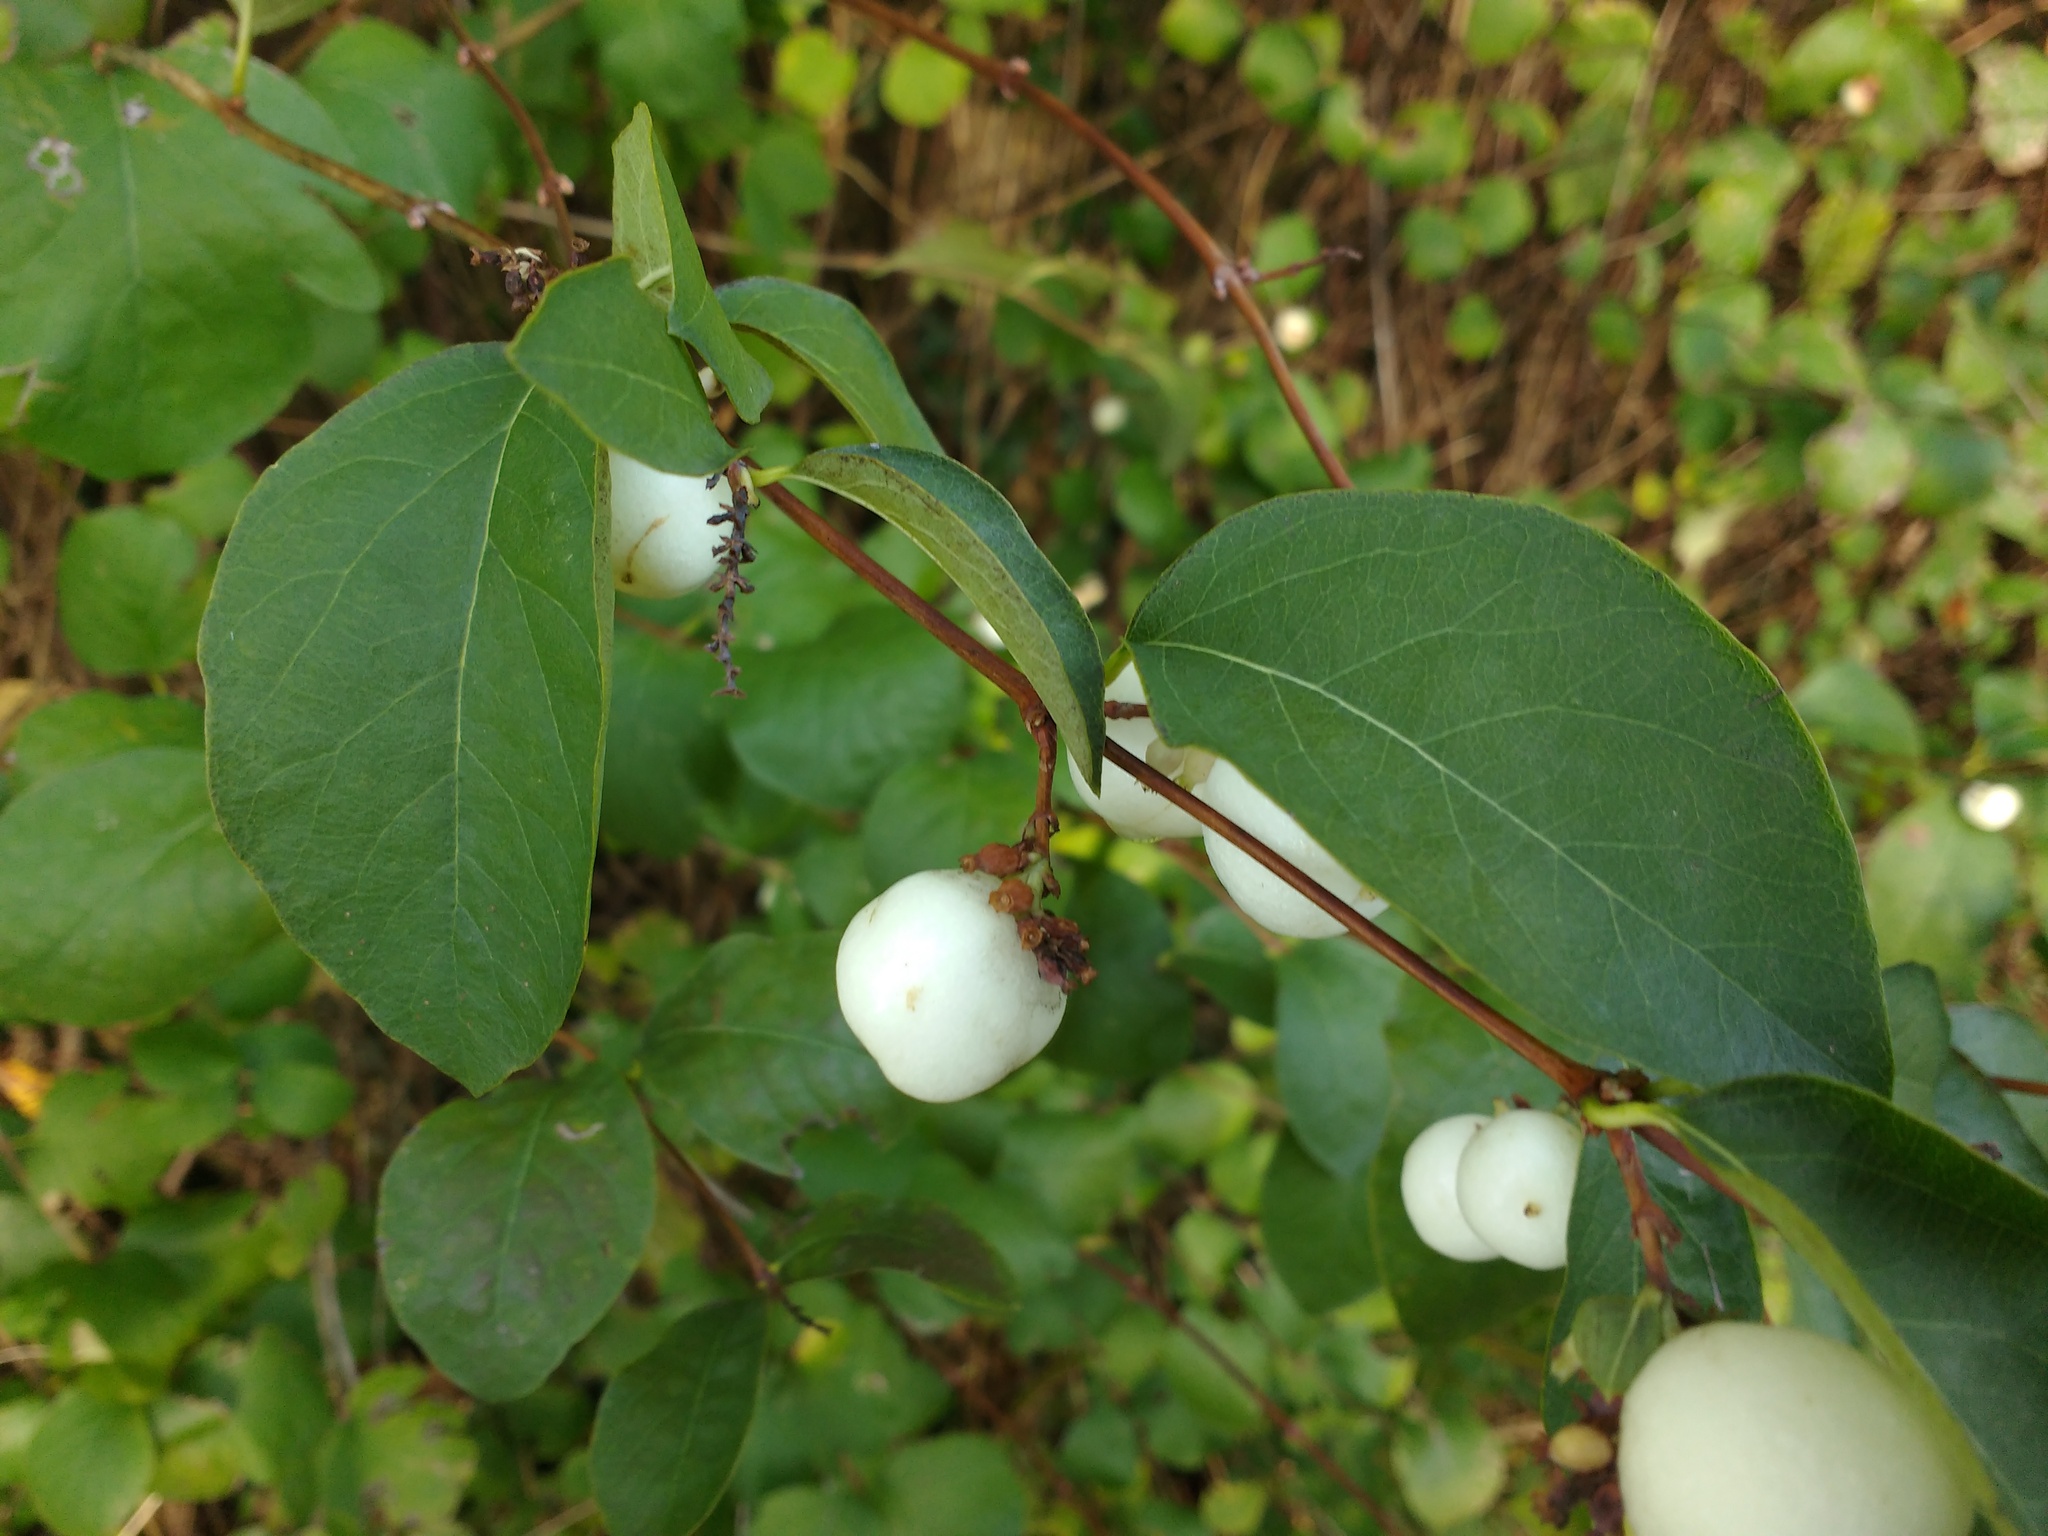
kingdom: Plantae
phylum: Tracheophyta
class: Magnoliopsida
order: Dipsacales
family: Caprifoliaceae
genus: Symphoricarpos
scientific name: Symphoricarpos albus
